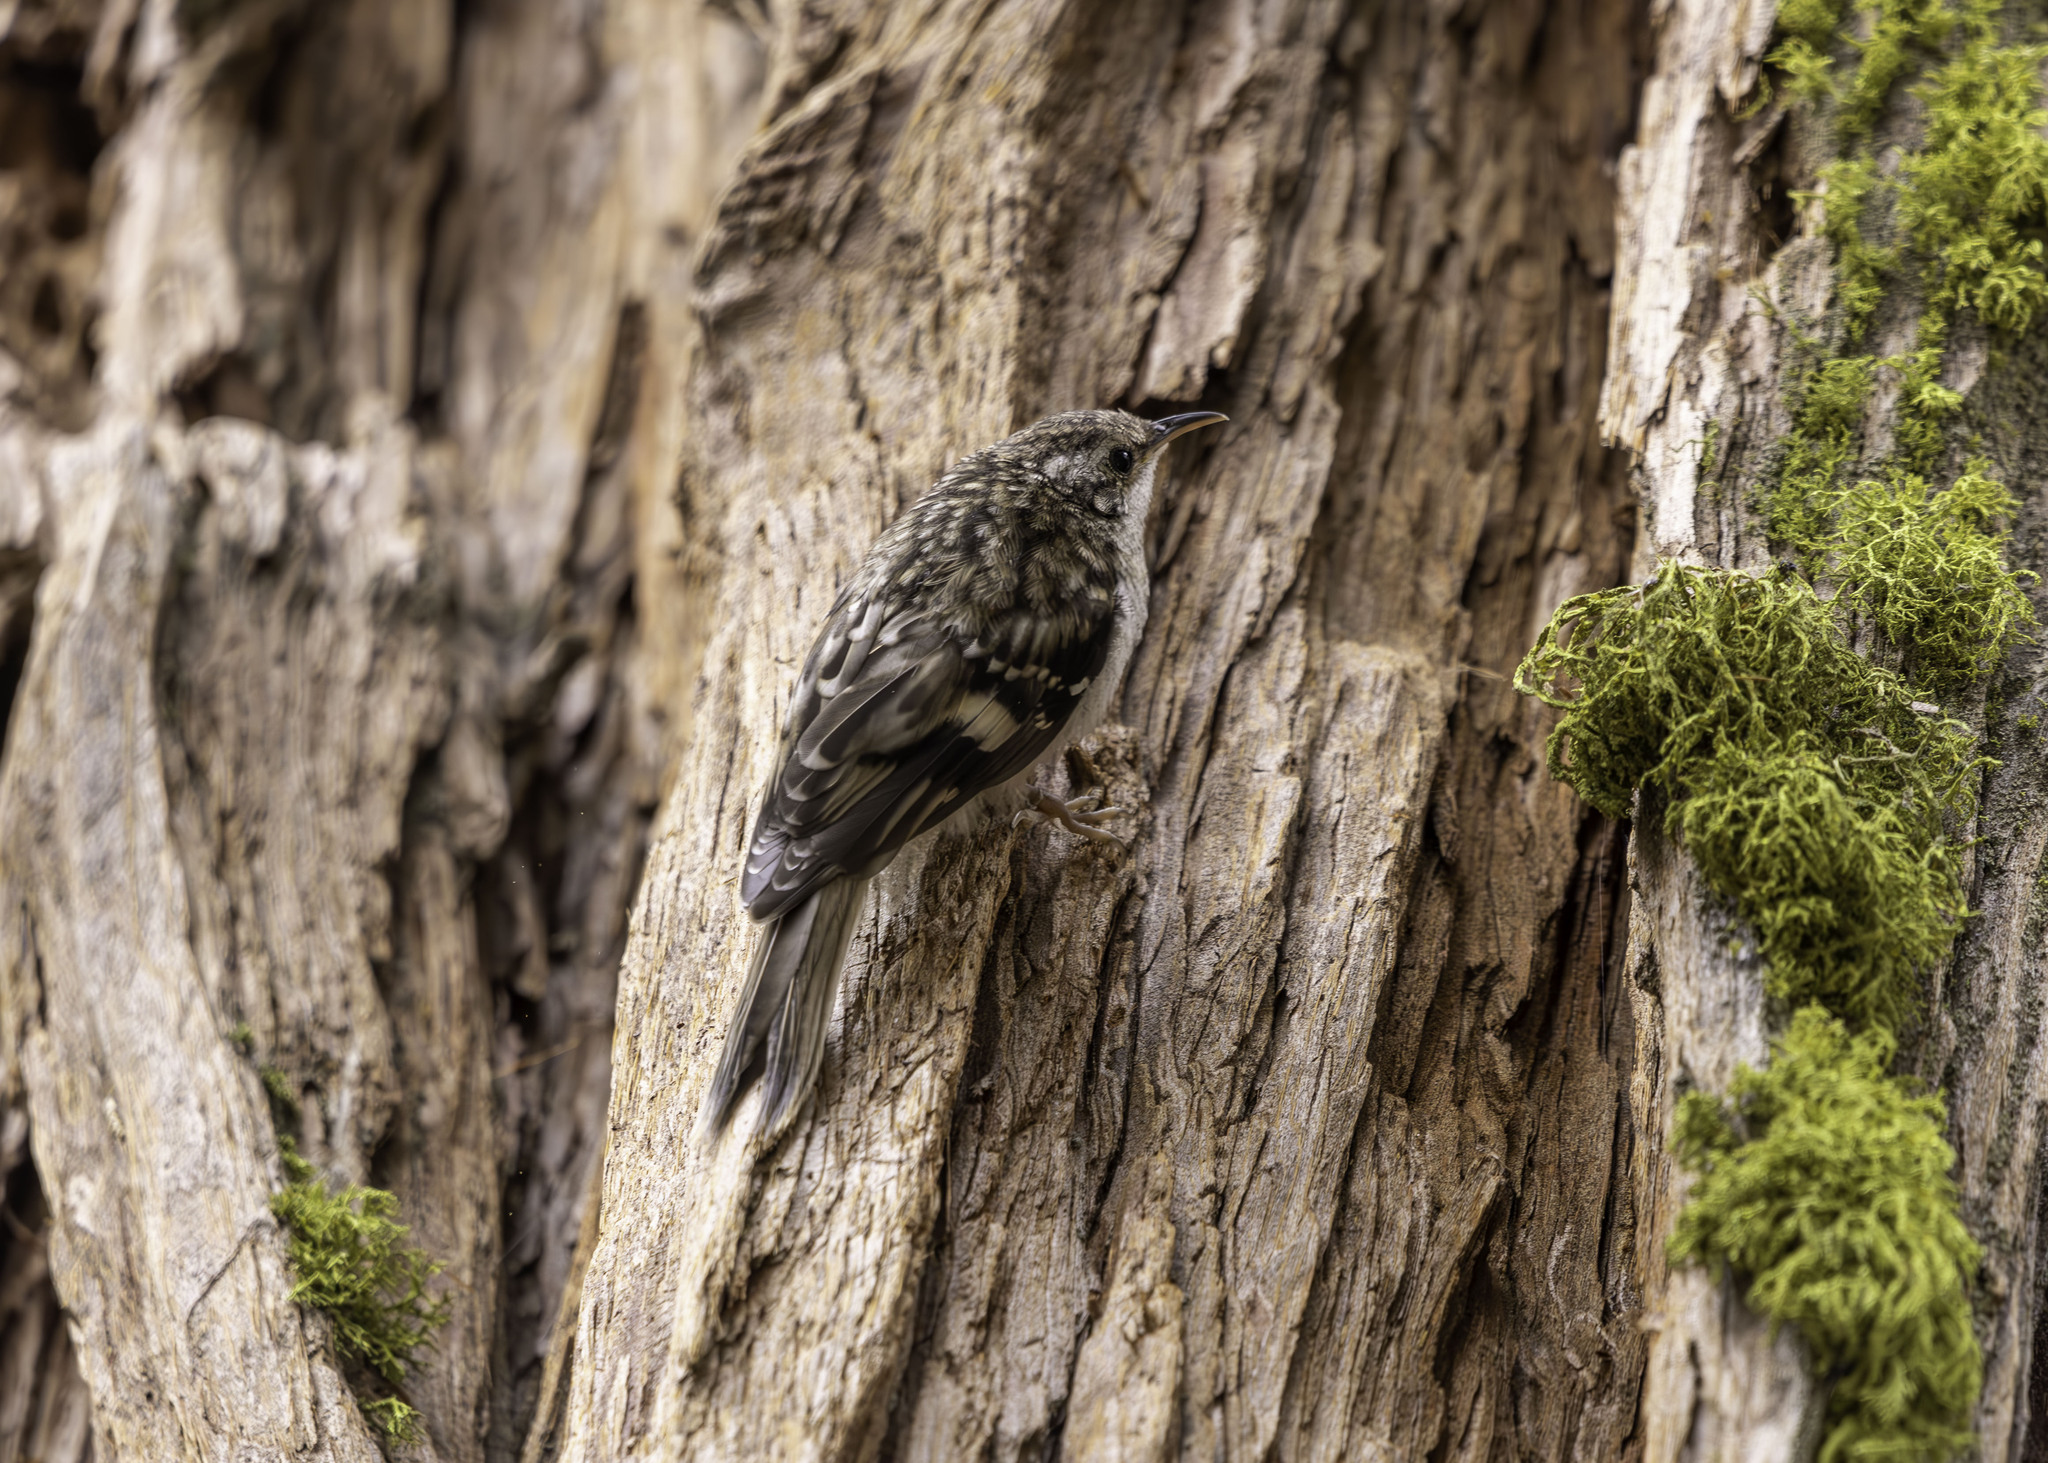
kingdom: Animalia
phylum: Chordata
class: Aves
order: Passeriformes
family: Certhiidae
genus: Certhia
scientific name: Certhia americana
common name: Brown creeper
